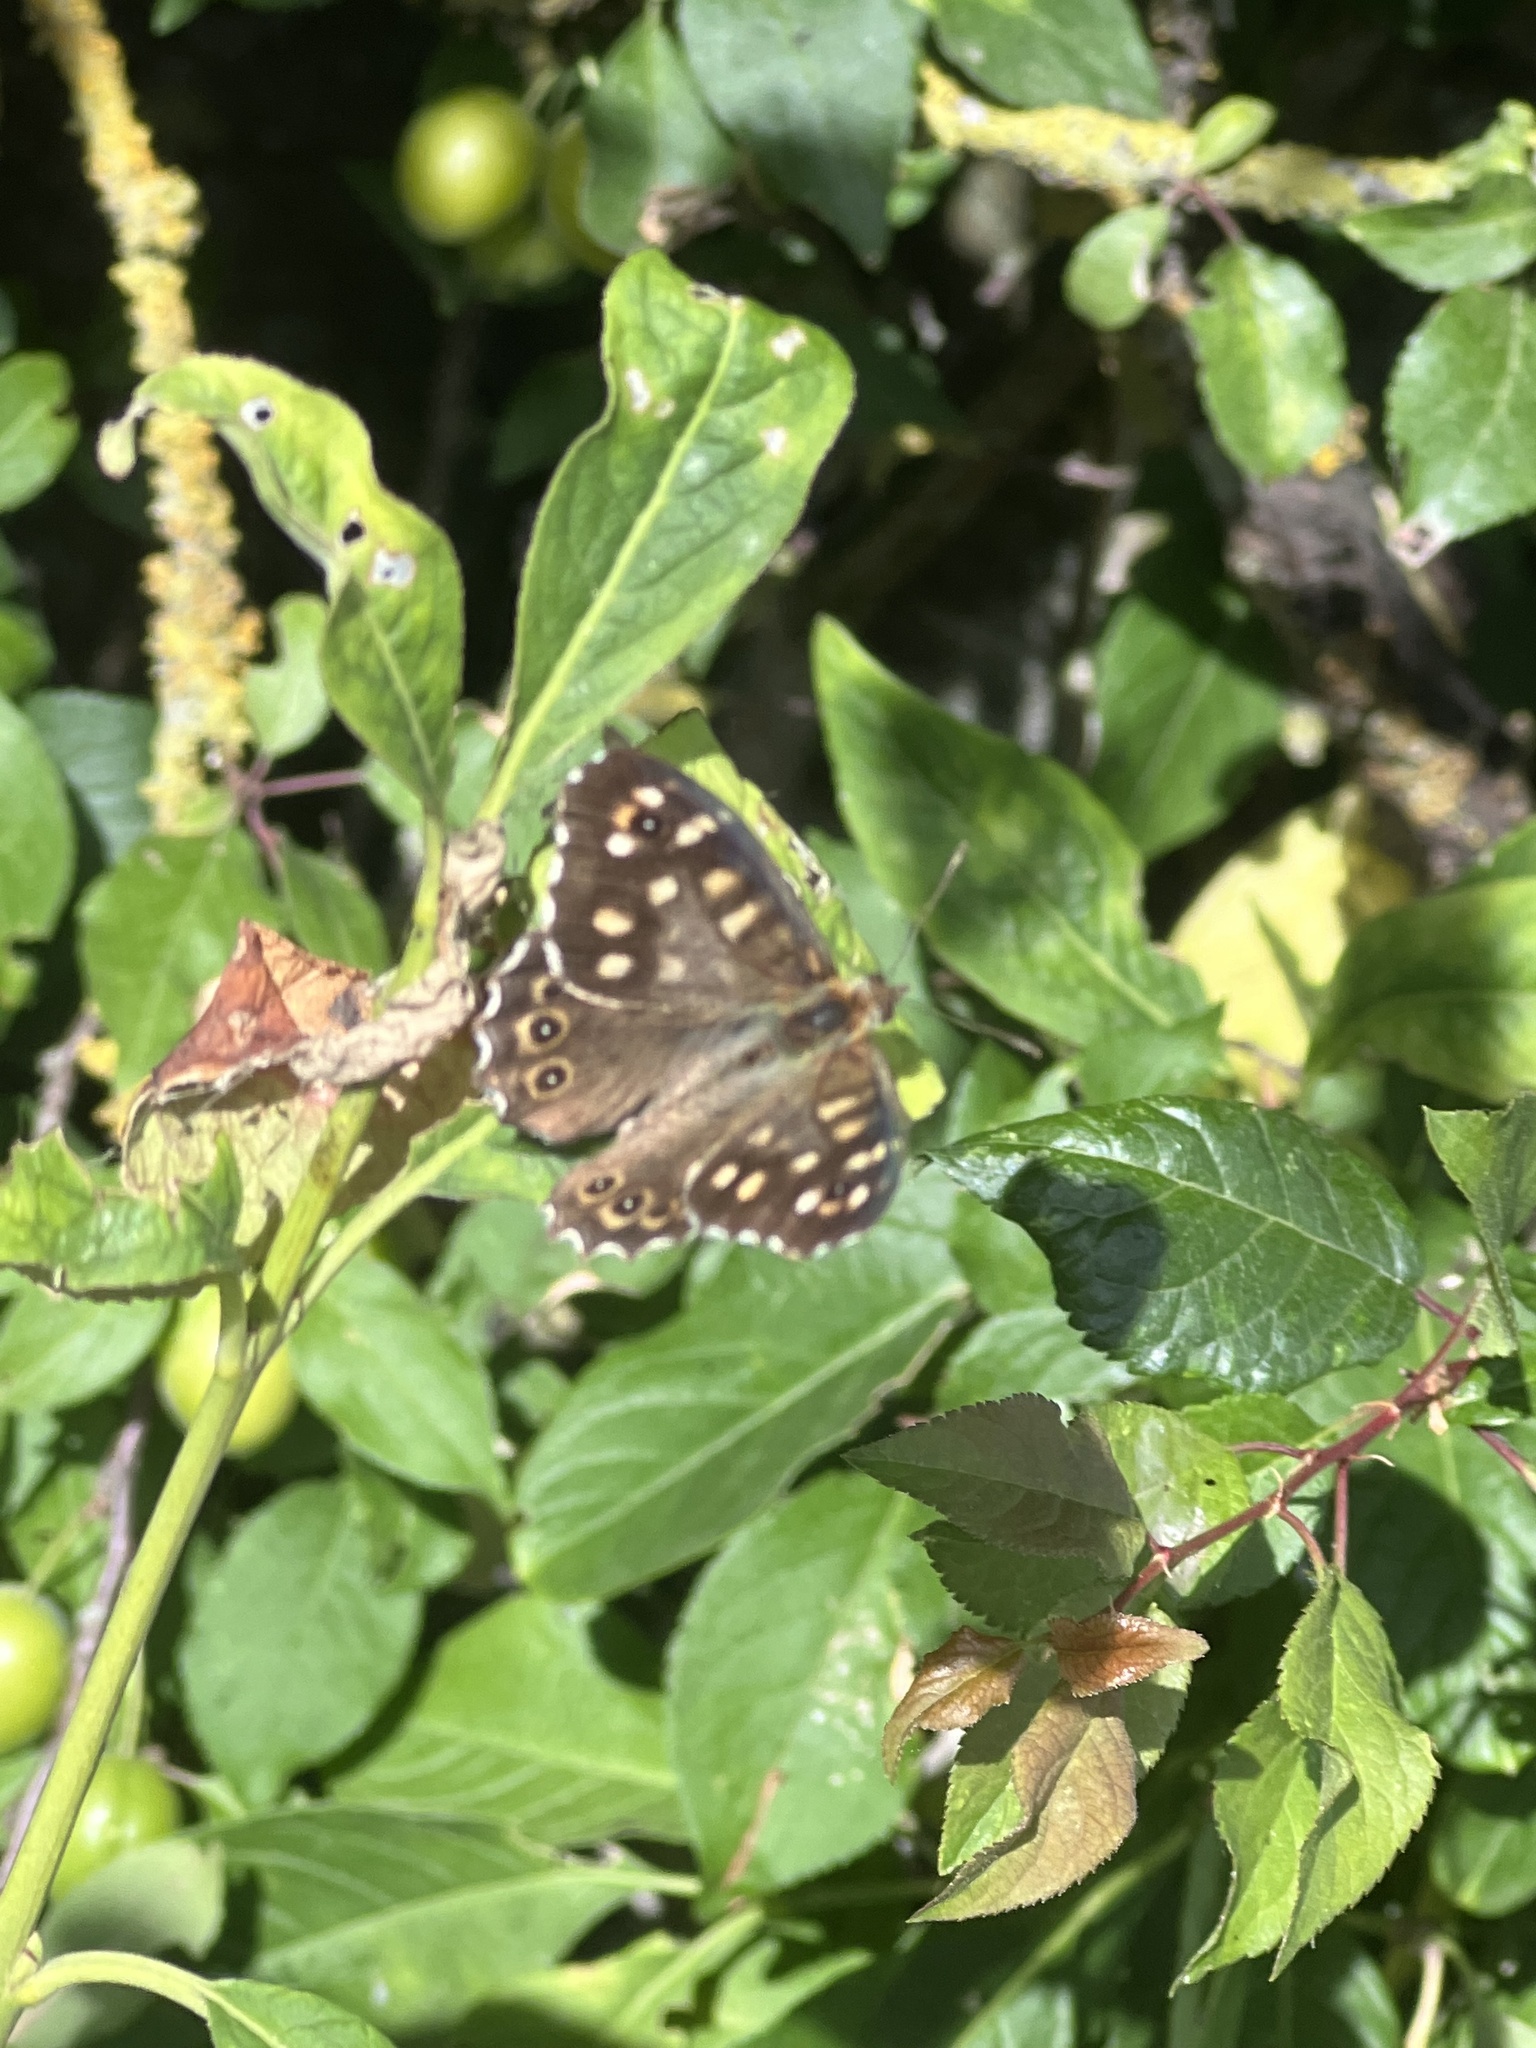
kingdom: Animalia
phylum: Arthropoda
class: Insecta
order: Lepidoptera
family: Nymphalidae
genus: Pararge
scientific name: Pararge aegeria
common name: Speckled wood
